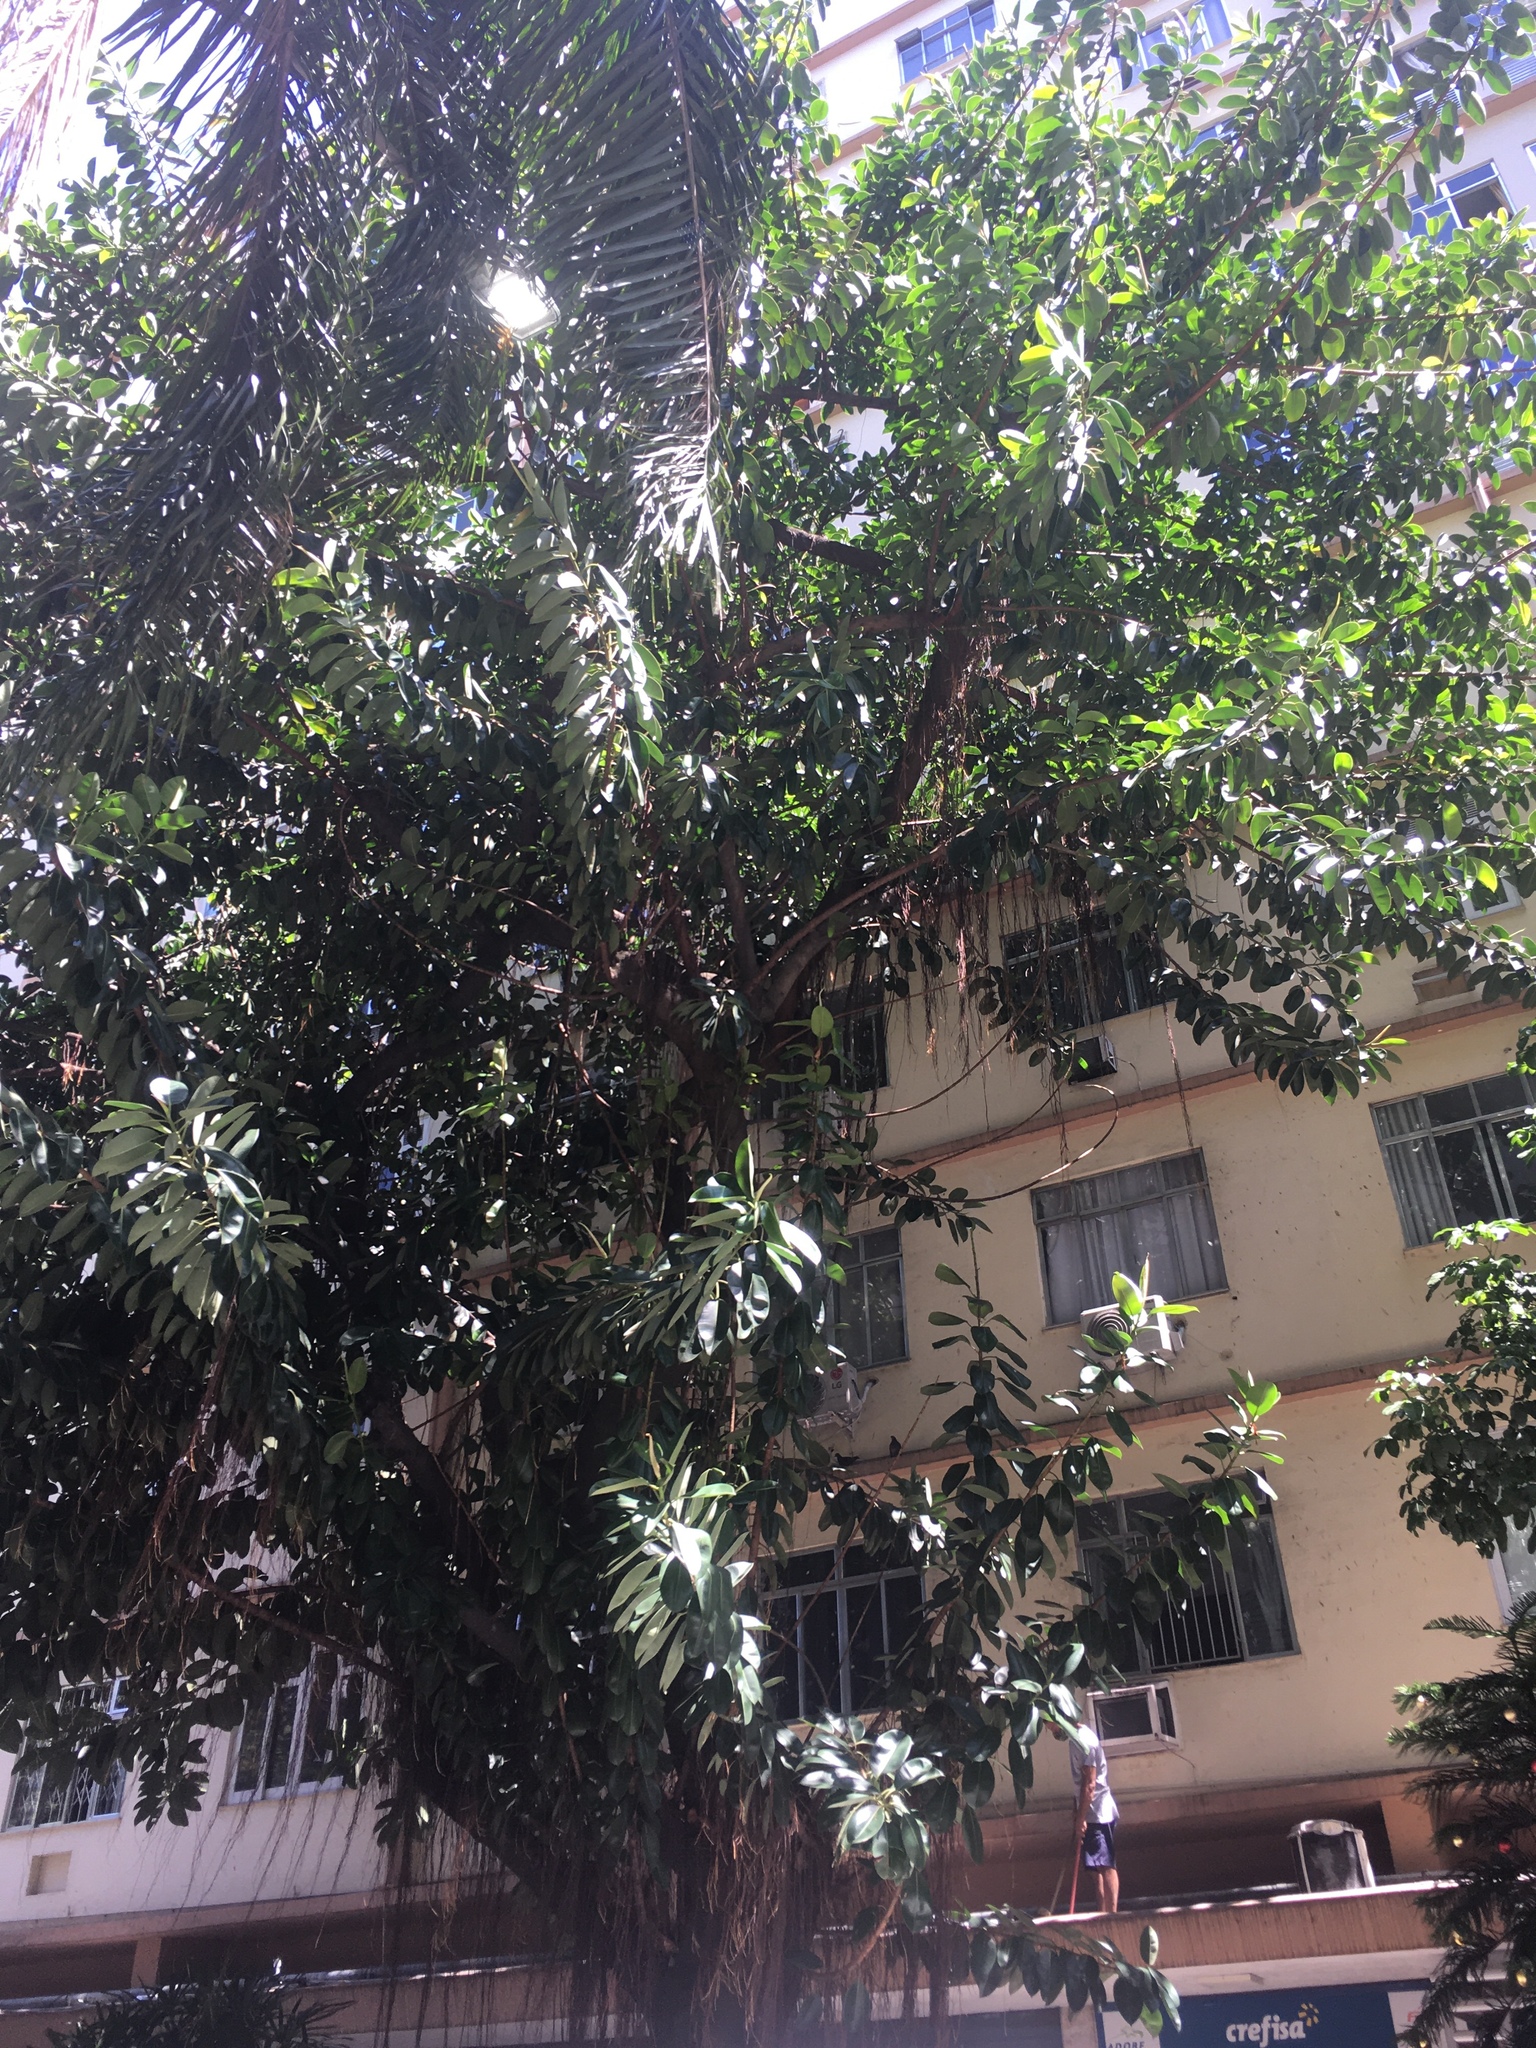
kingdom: Plantae
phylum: Tracheophyta
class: Magnoliopsida
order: Rosales
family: Moraceae
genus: Ficus
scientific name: Ficus elastica
